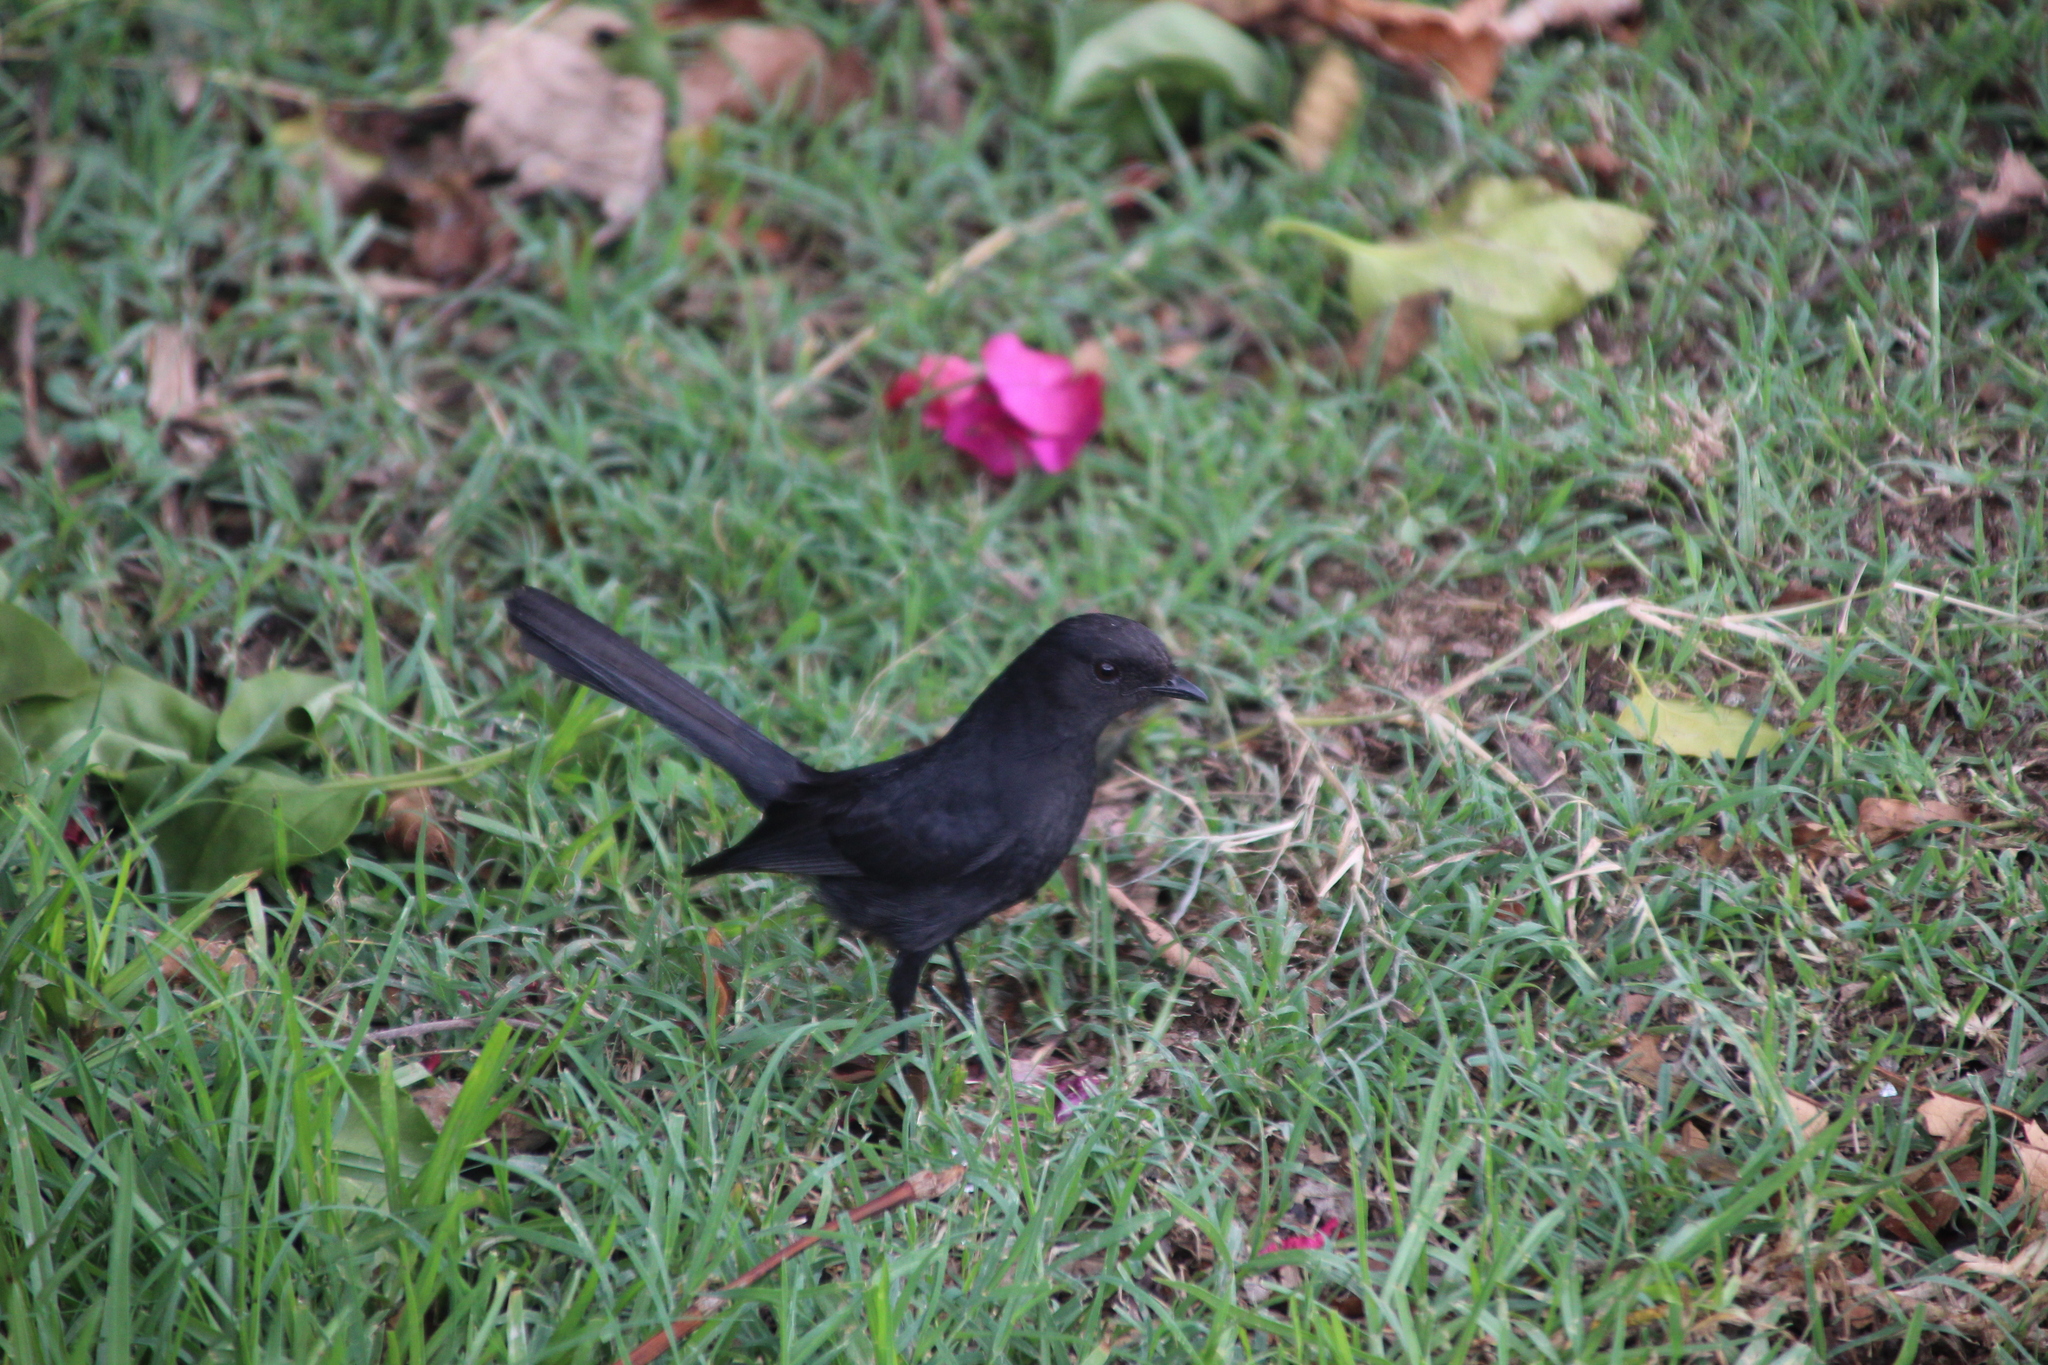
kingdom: Animalia
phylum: Chordata
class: Aves
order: Passeriformes
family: Muscicapidae
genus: Melaenornis
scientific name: Melaenornis edolioides
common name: Northern black flycatcher
